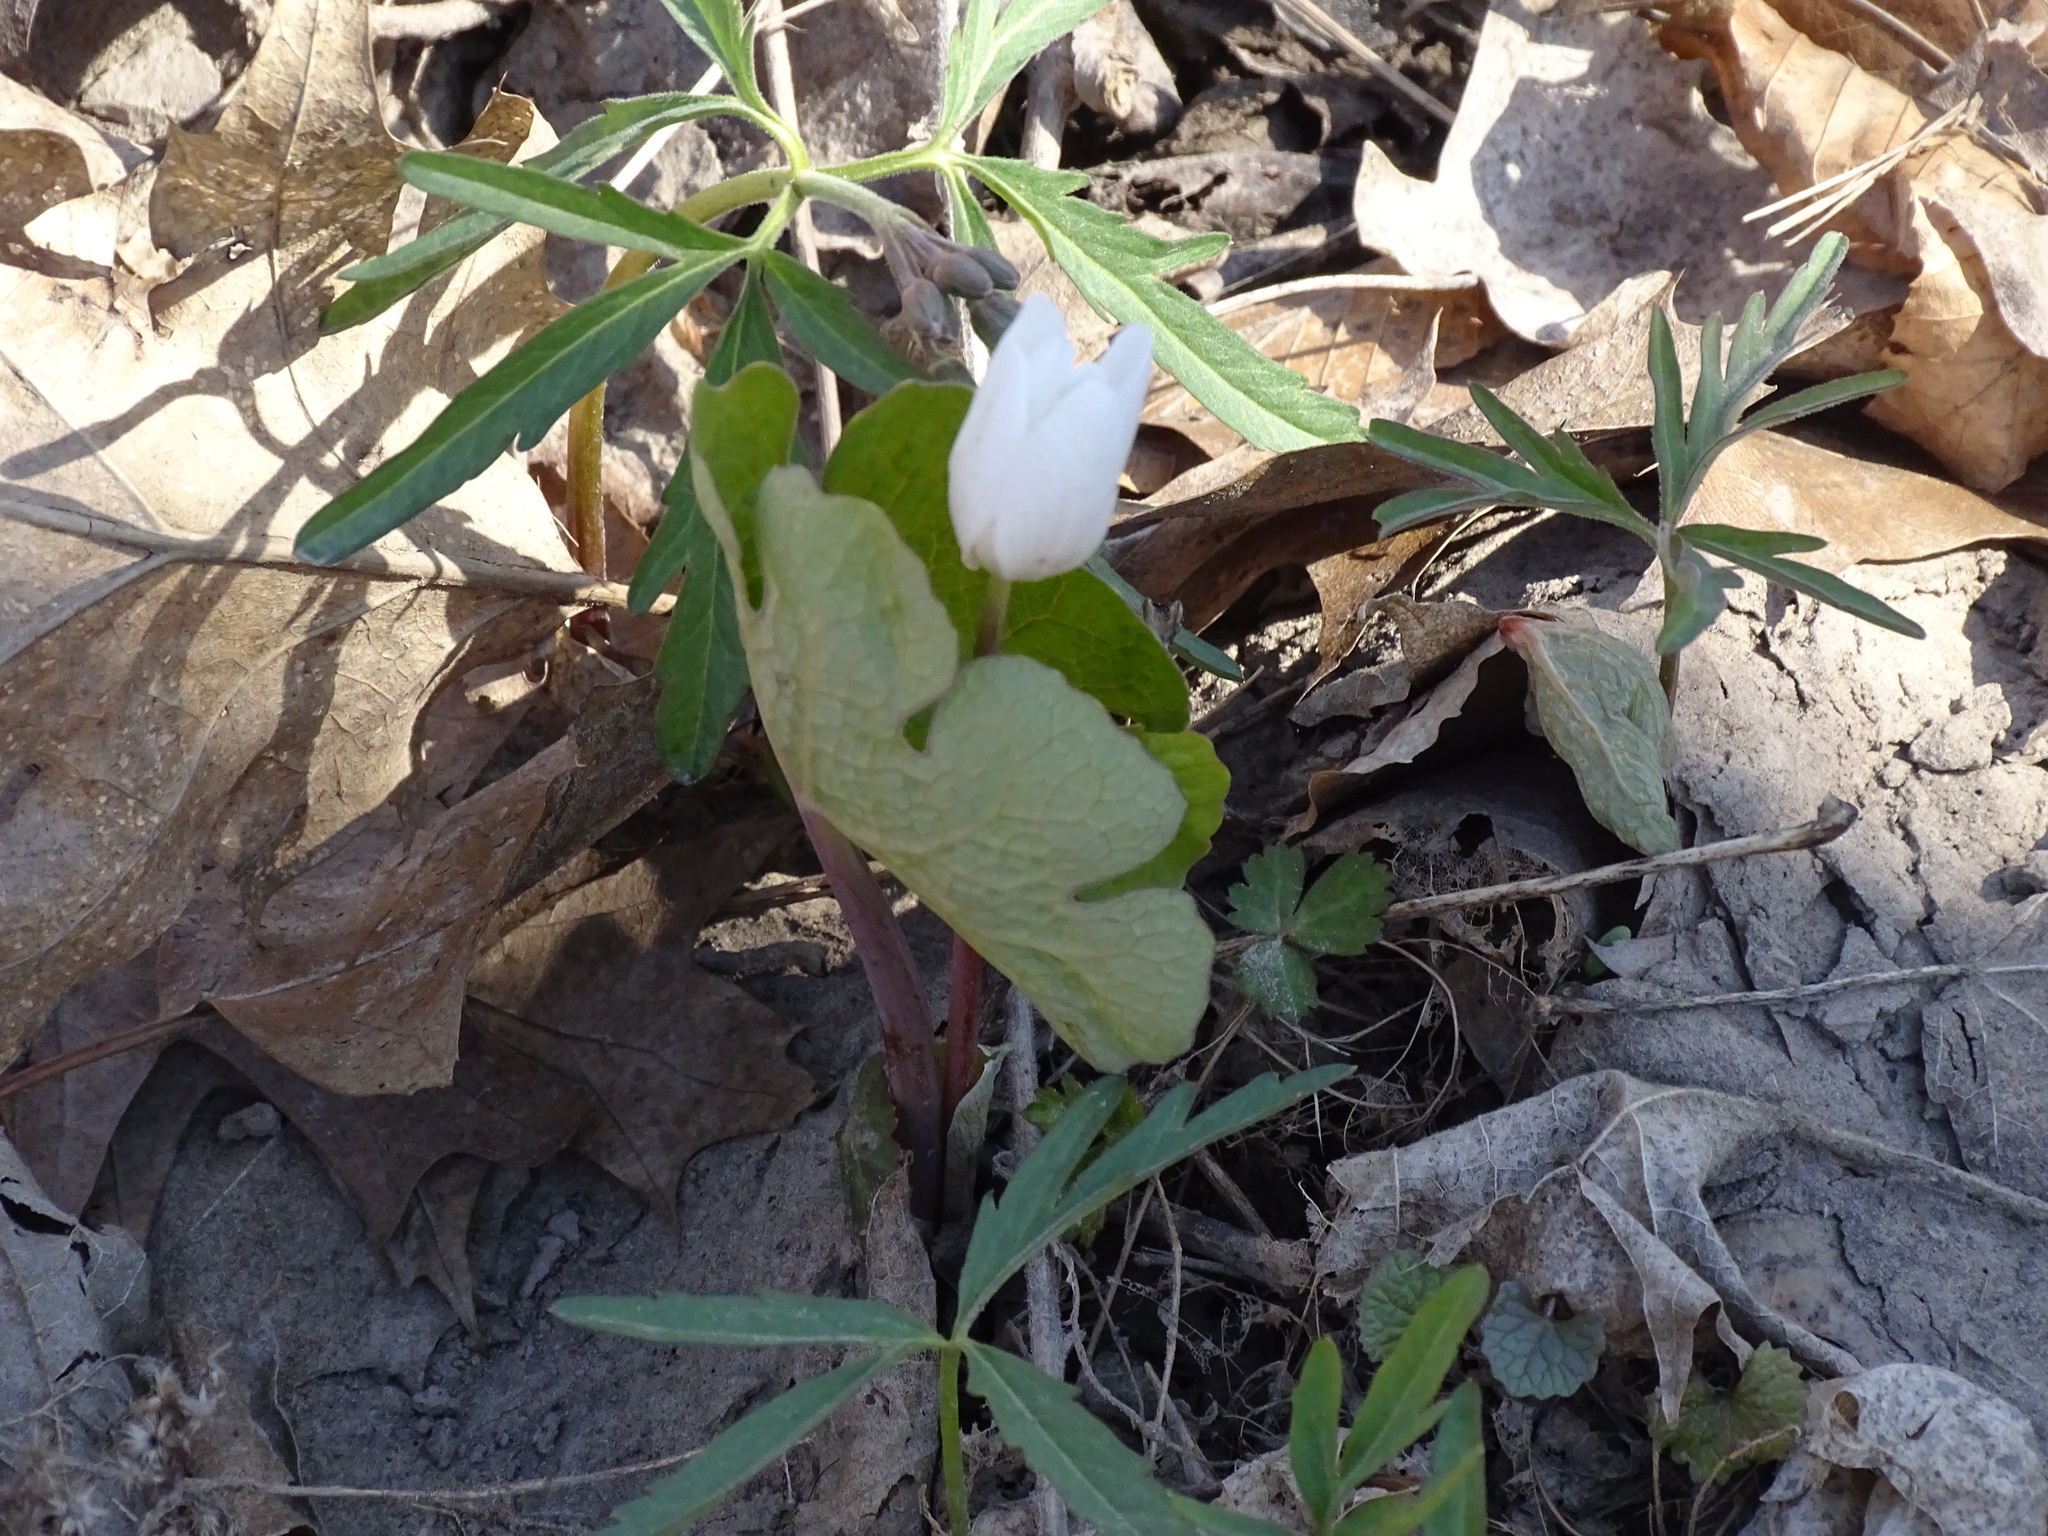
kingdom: Plantae
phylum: Tracheophyta
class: Magnoliopsida
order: Ranunculales
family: Papaveraceae
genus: Sanguinaria
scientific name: Sanguinaria canadensis
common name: Bloodroot
